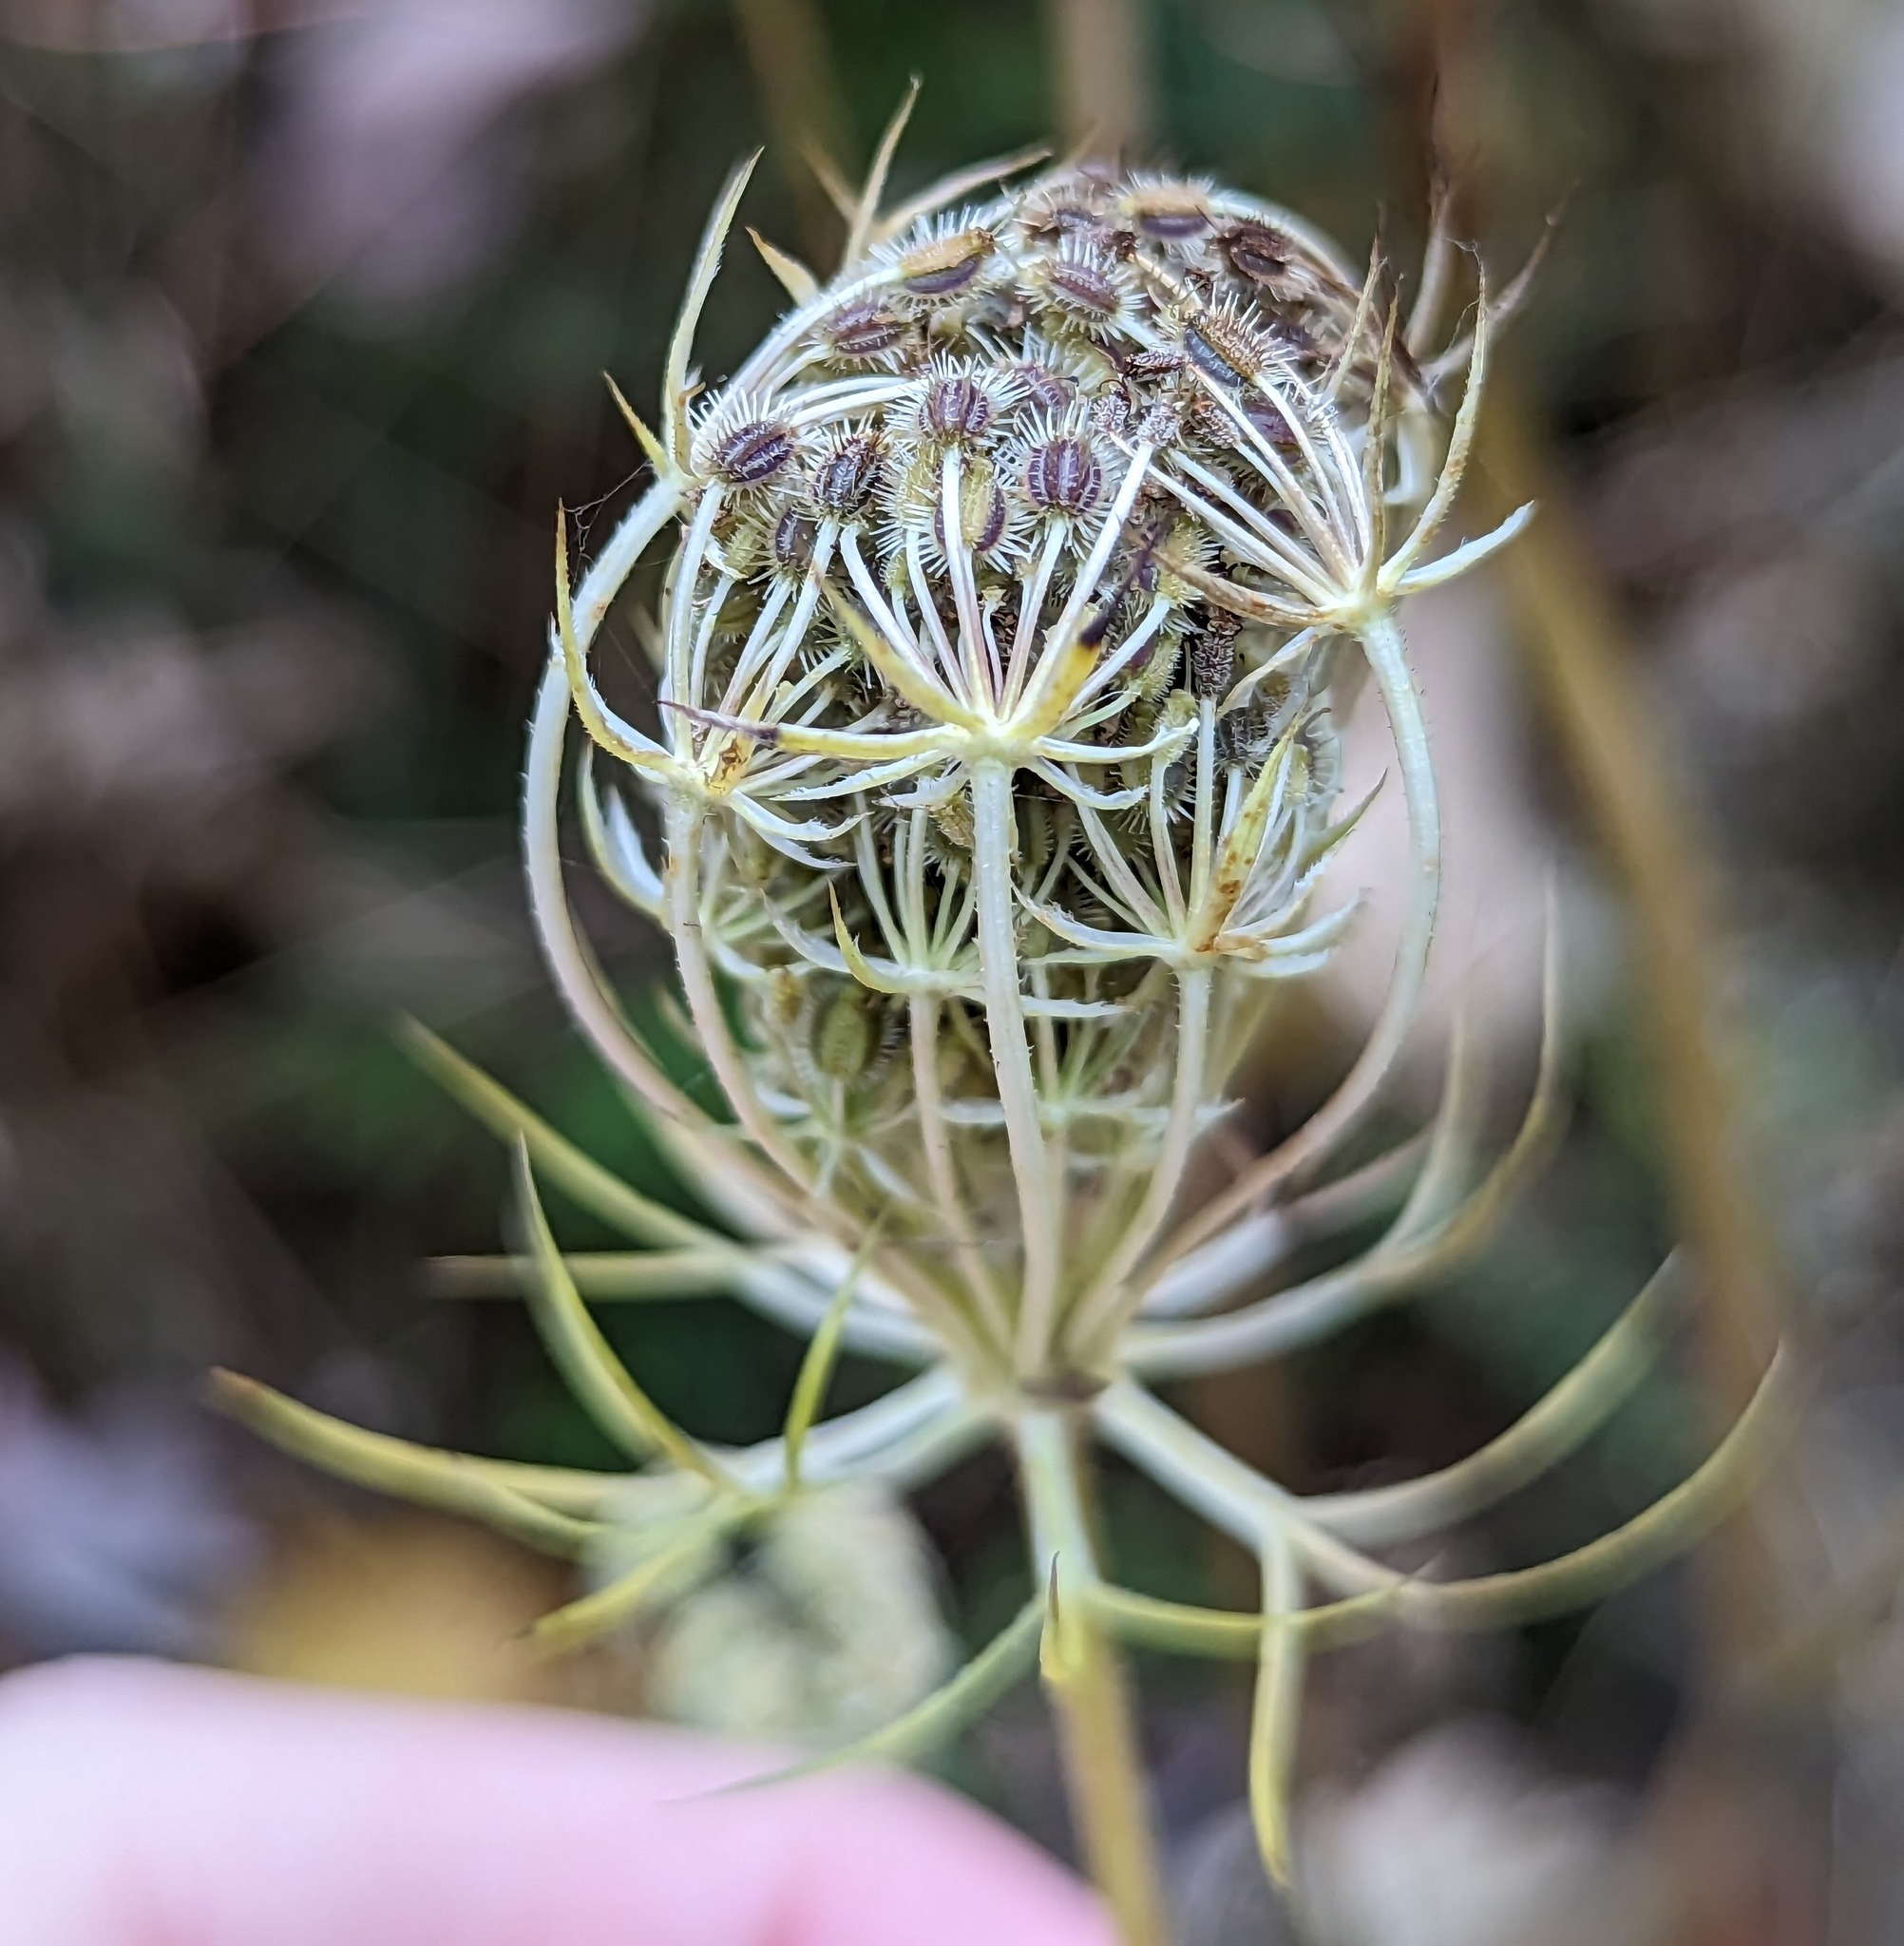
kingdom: Plantae
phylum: Tracheophyta
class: Magnoliopsida
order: Apiales
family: Apiaceae
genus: Daucus
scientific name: Daucus carota
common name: Wild carrot
